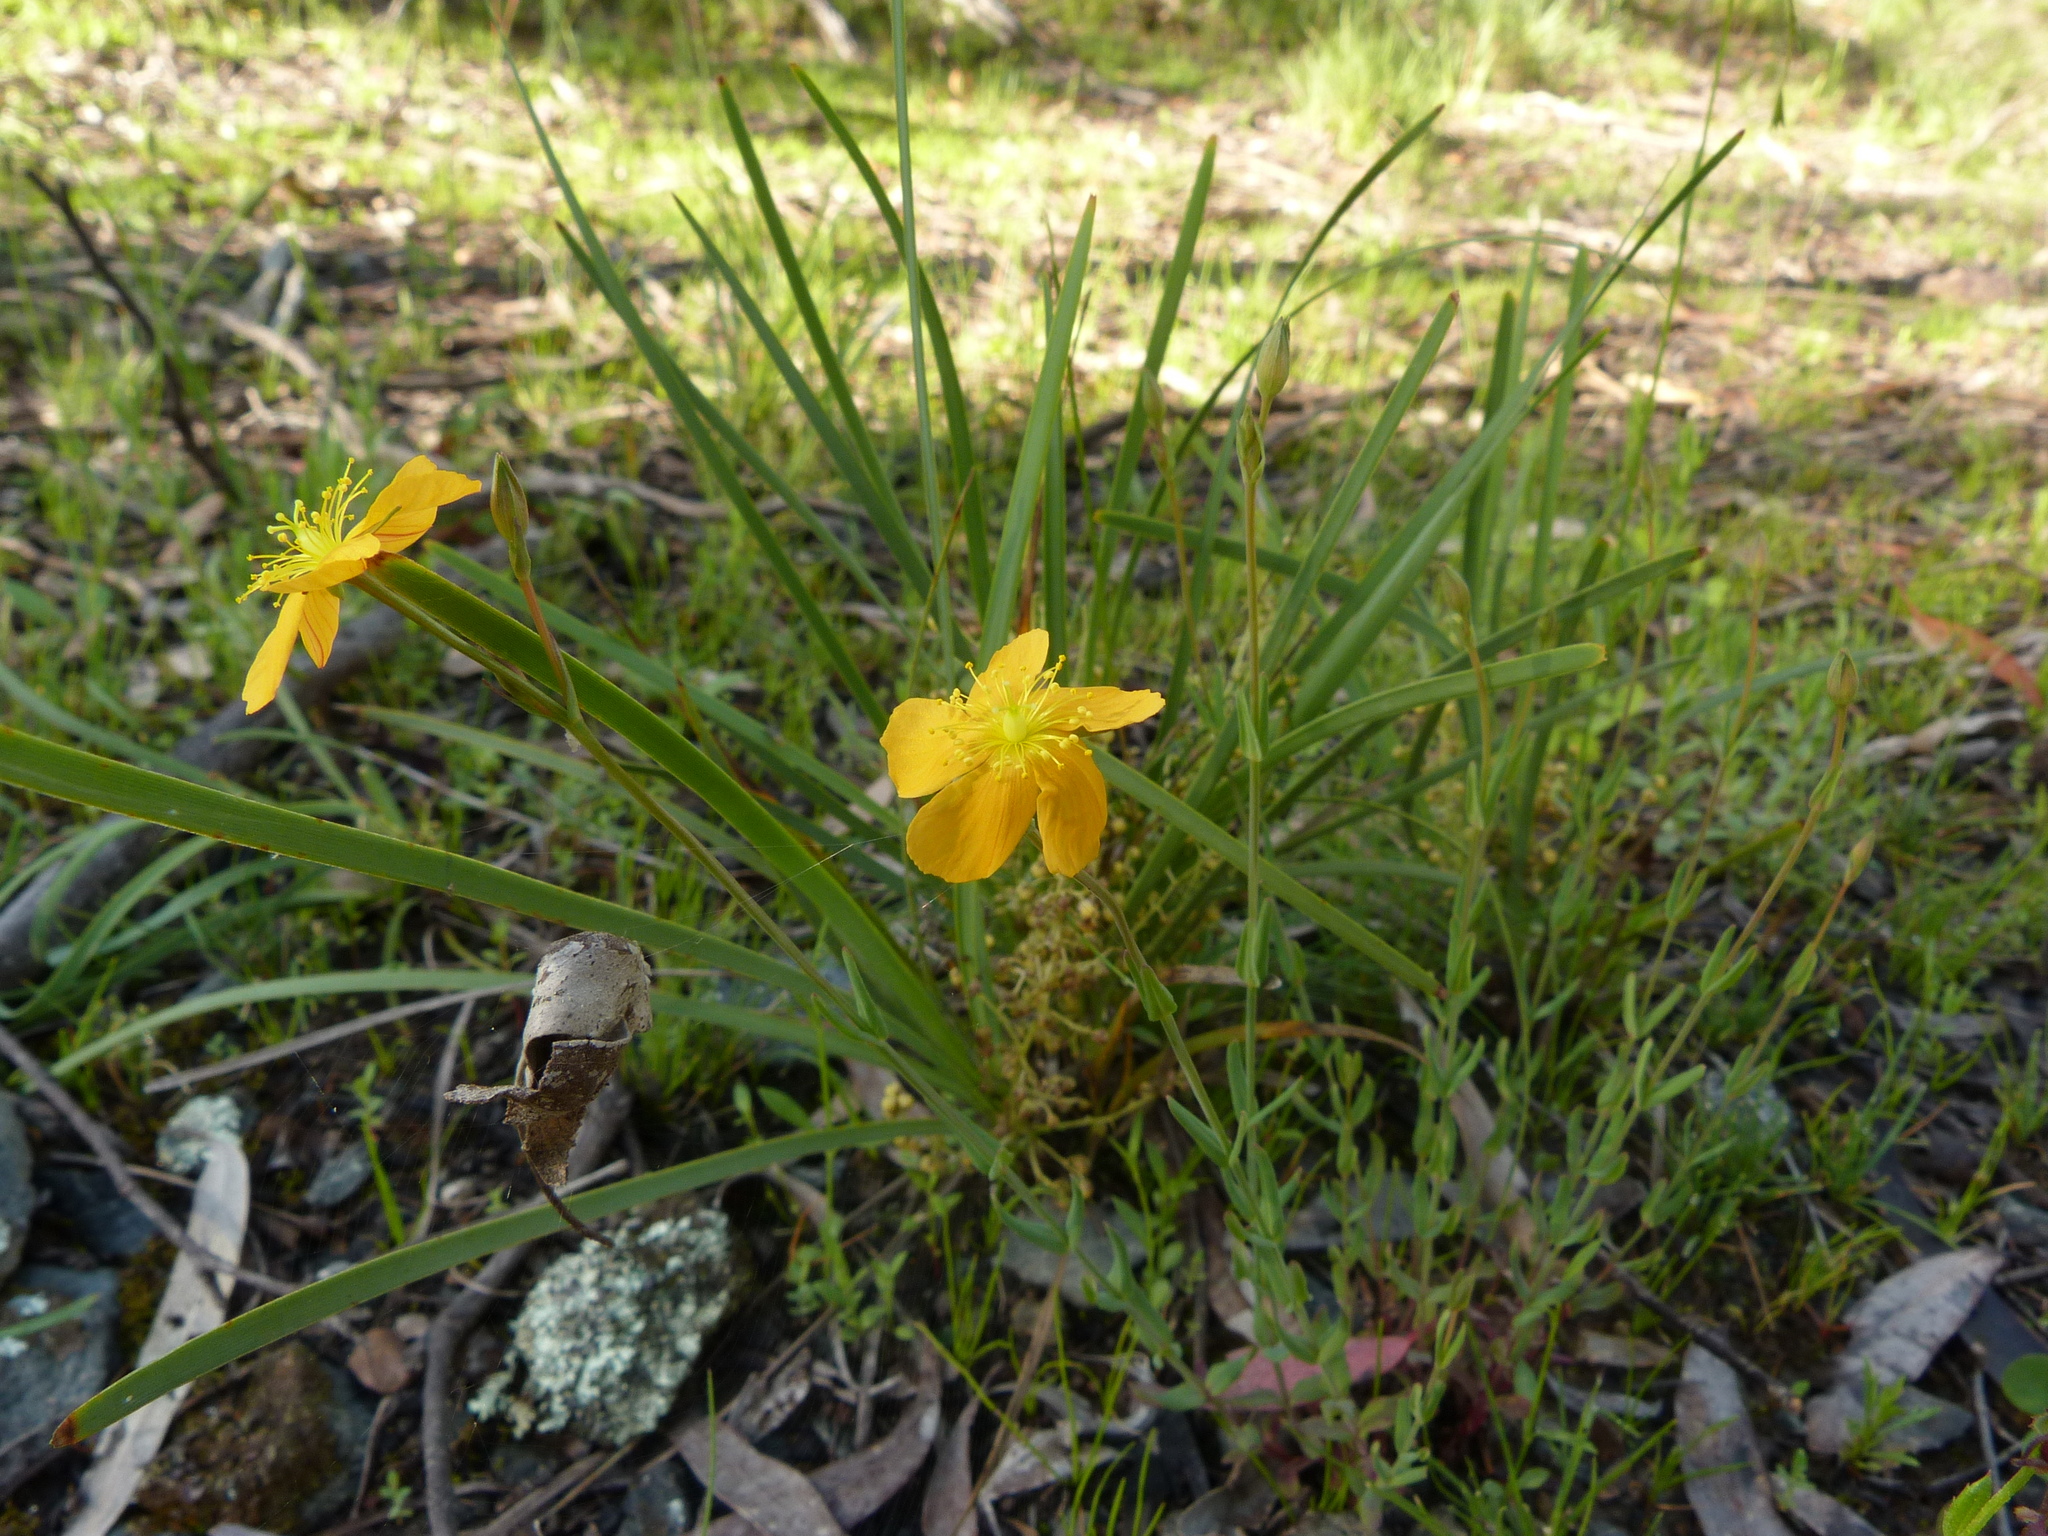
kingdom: Plantae
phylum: Tracheophyta
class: Magnoliopsida
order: Malpighiales
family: Hypericaceae
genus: Hypericum
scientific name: Hypericum gramineum
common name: Grassy st. johnswort
